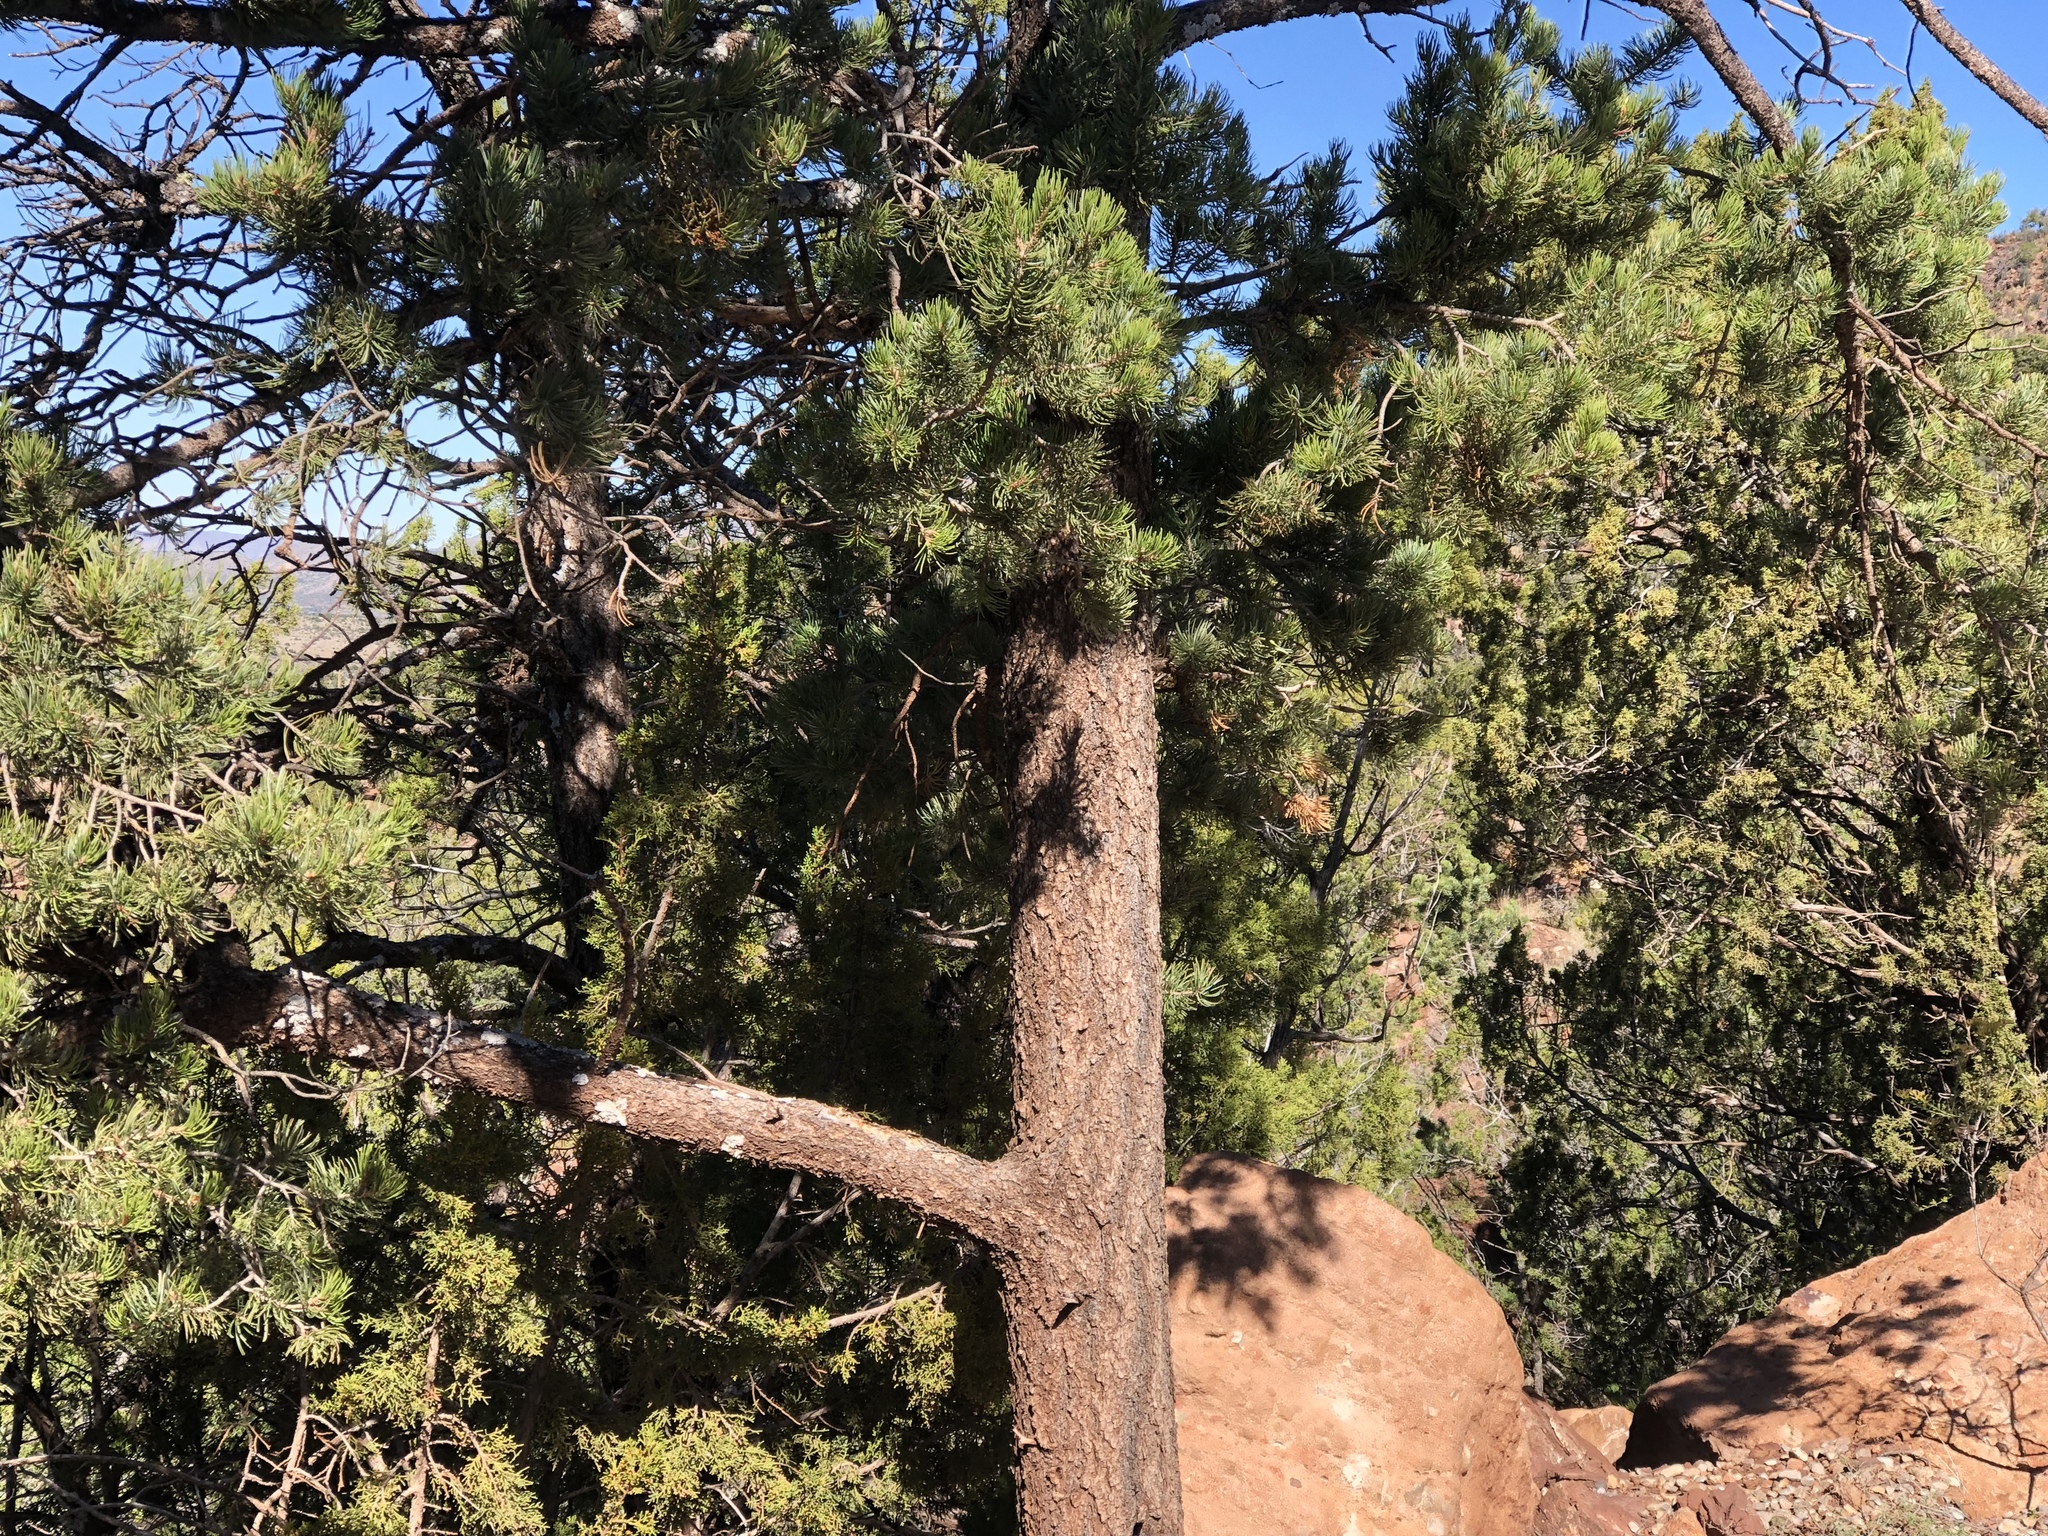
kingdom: Plantae
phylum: Tracheophyta
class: Pinopsida
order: Pinales
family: Pinaceae
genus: Pinus
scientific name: Pinus edulis
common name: Colorado pinyon
